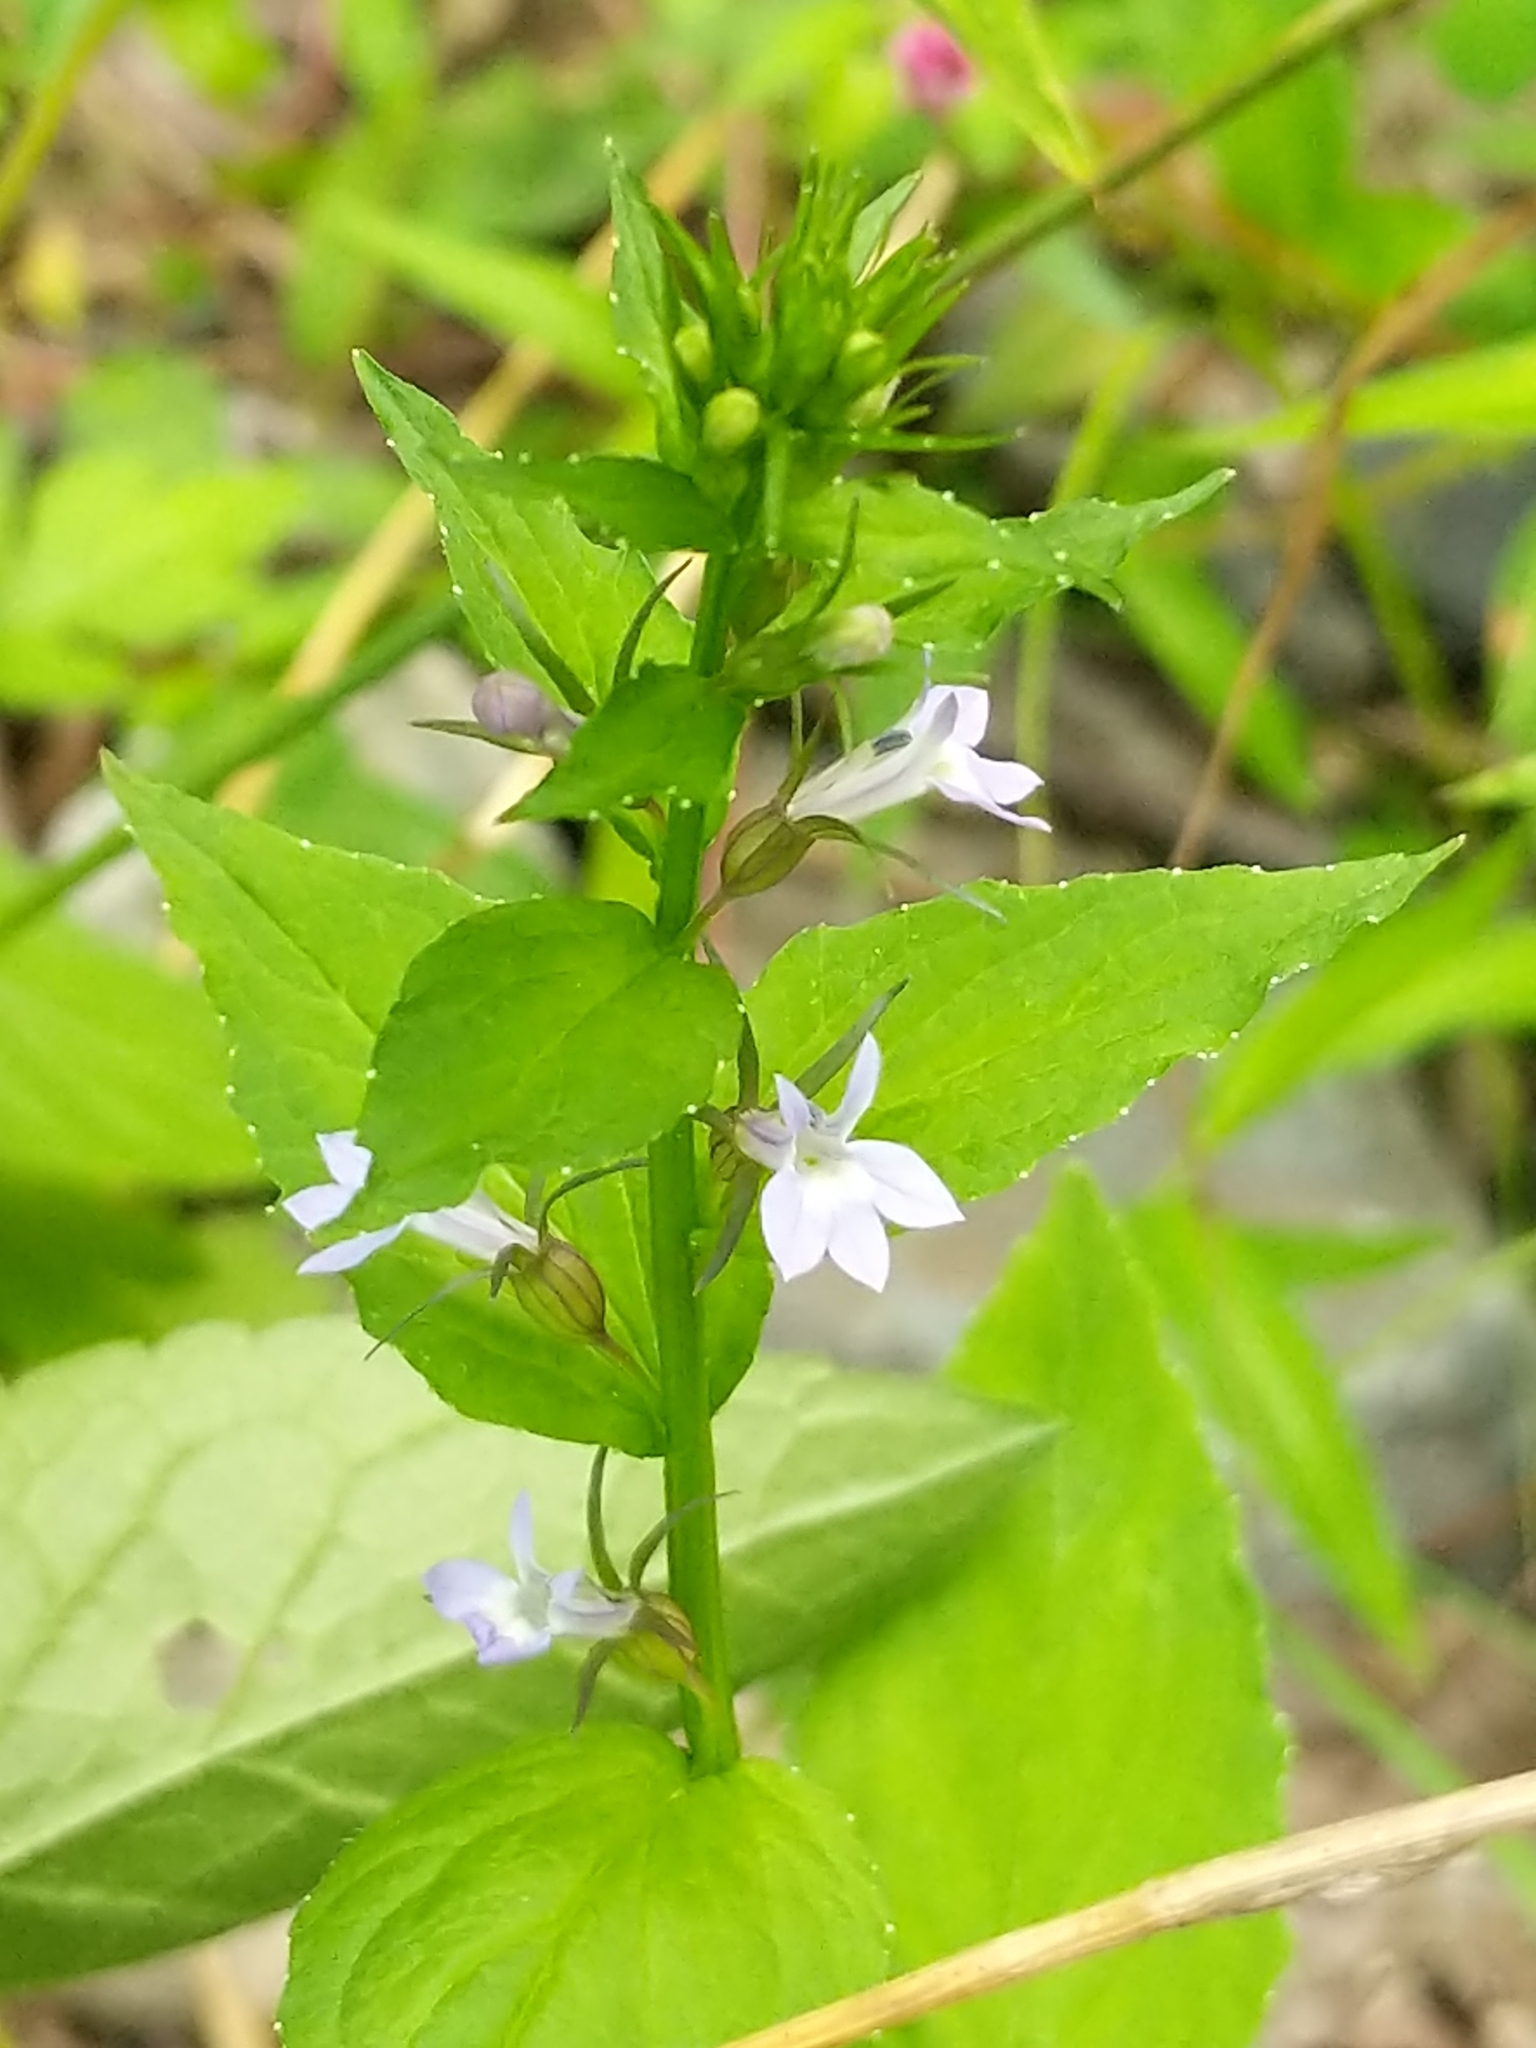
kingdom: Plantae
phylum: Tracheophyta
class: Magnoliopsida
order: Asterales
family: Campanulaceae
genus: Lobelia
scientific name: Lobelia inflata
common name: Indian tobacco
